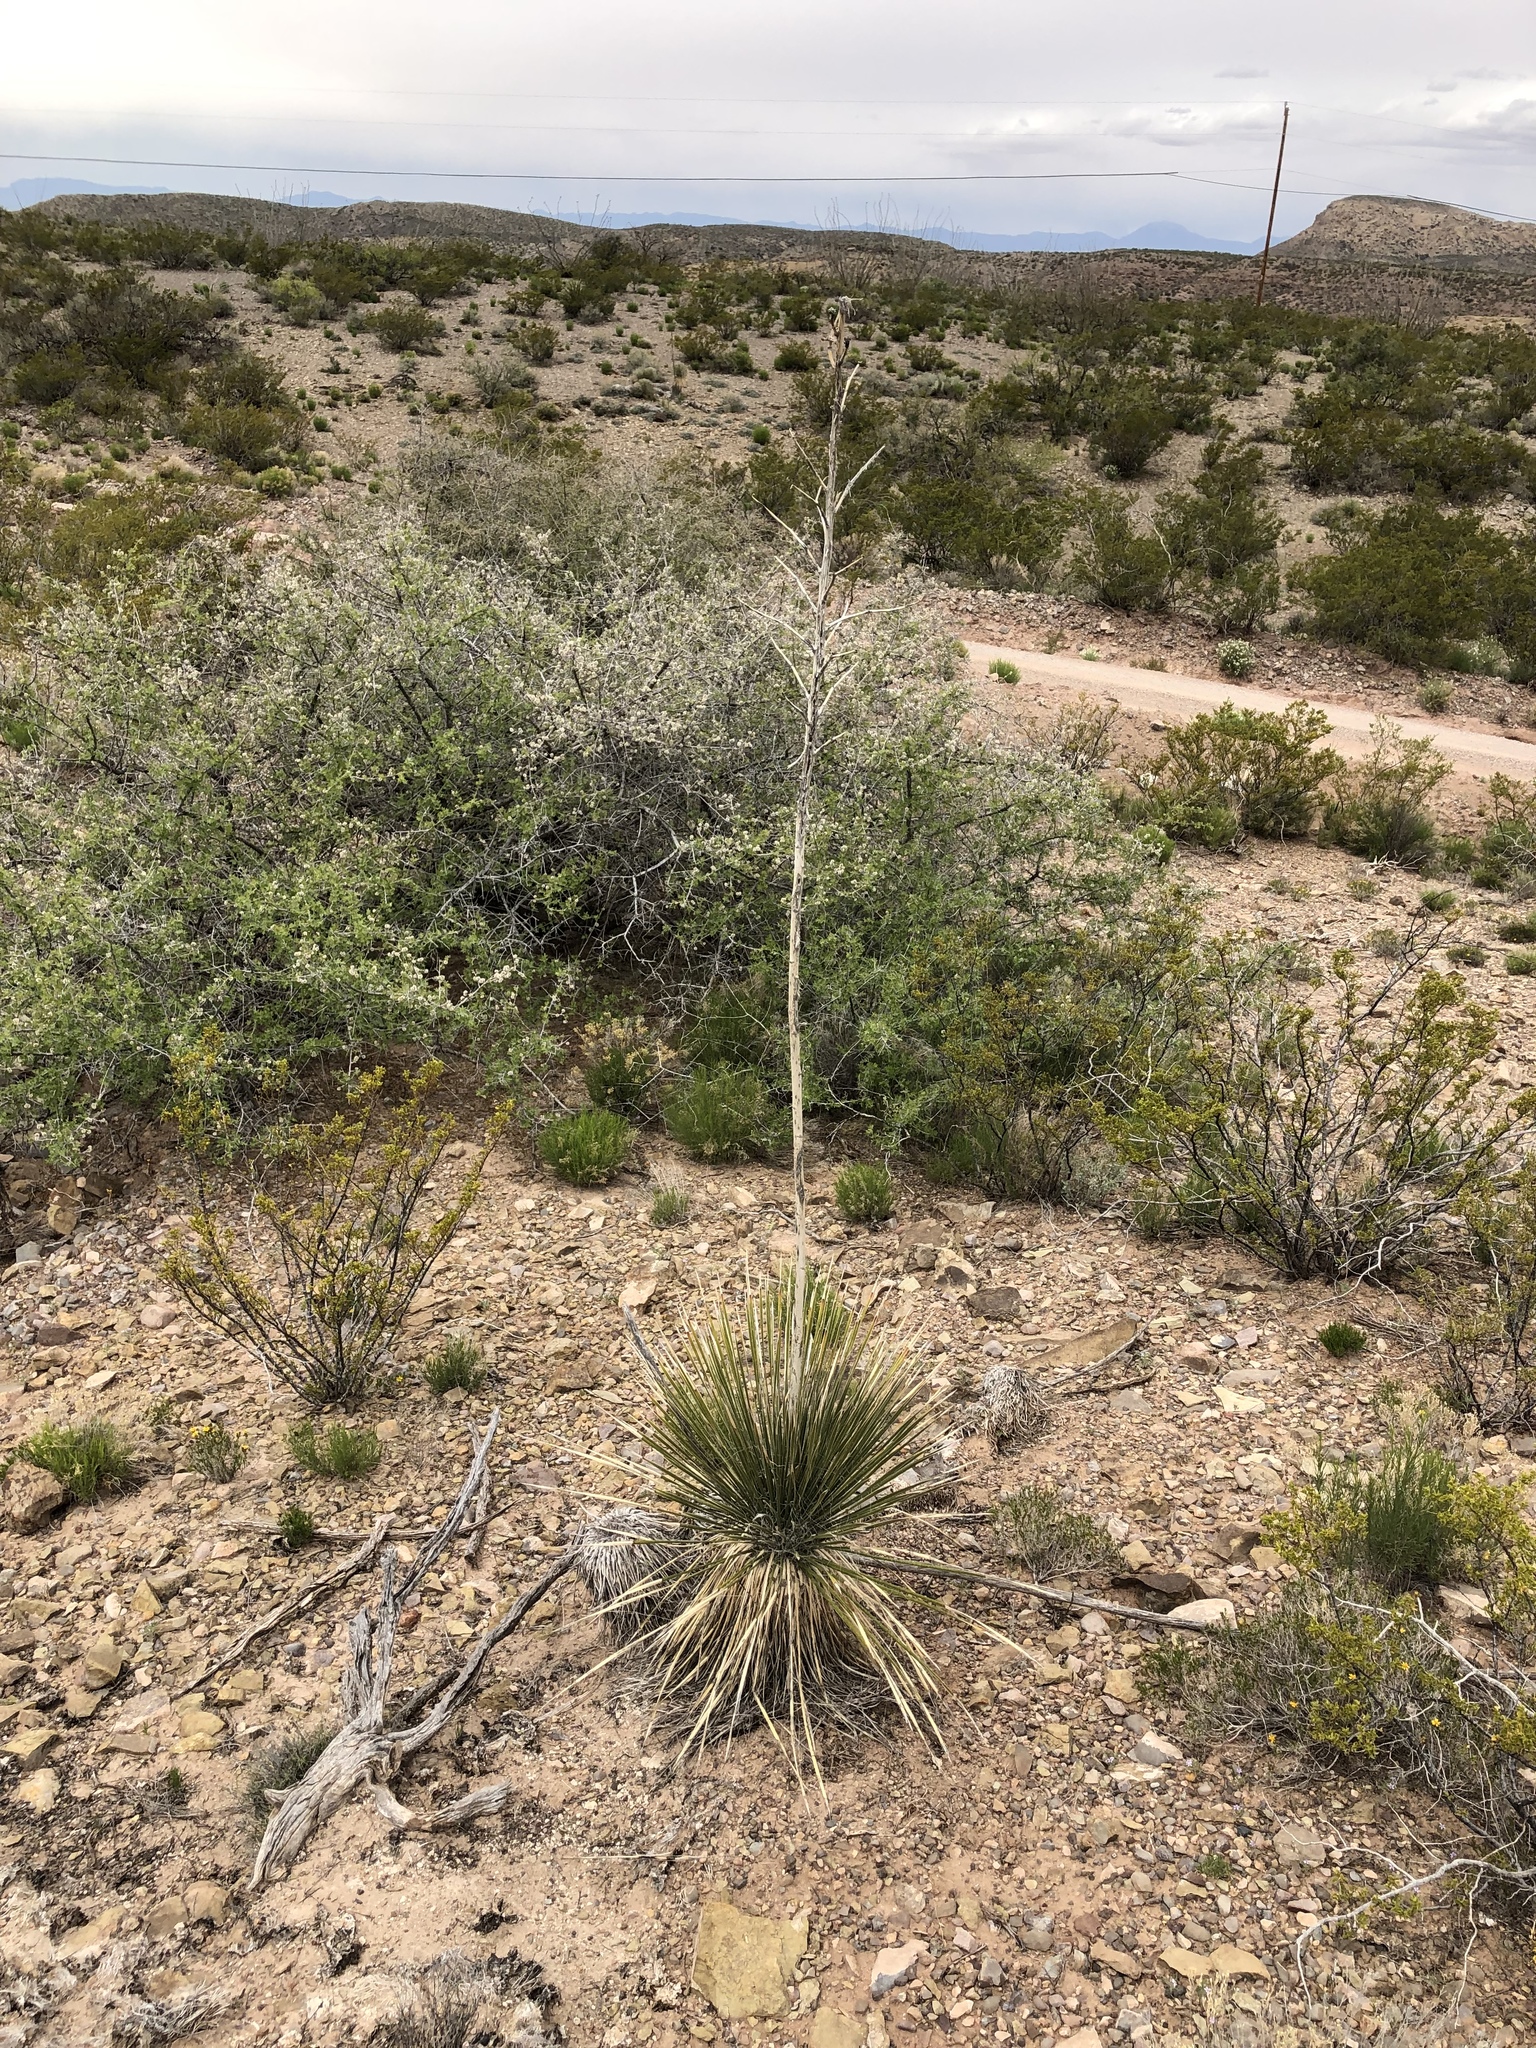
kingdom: Plantae
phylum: Tracheophyta
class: Liliopsida
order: Asparagales
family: Asparagaceae
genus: Yucca
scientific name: Yucca elata
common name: Palmella
